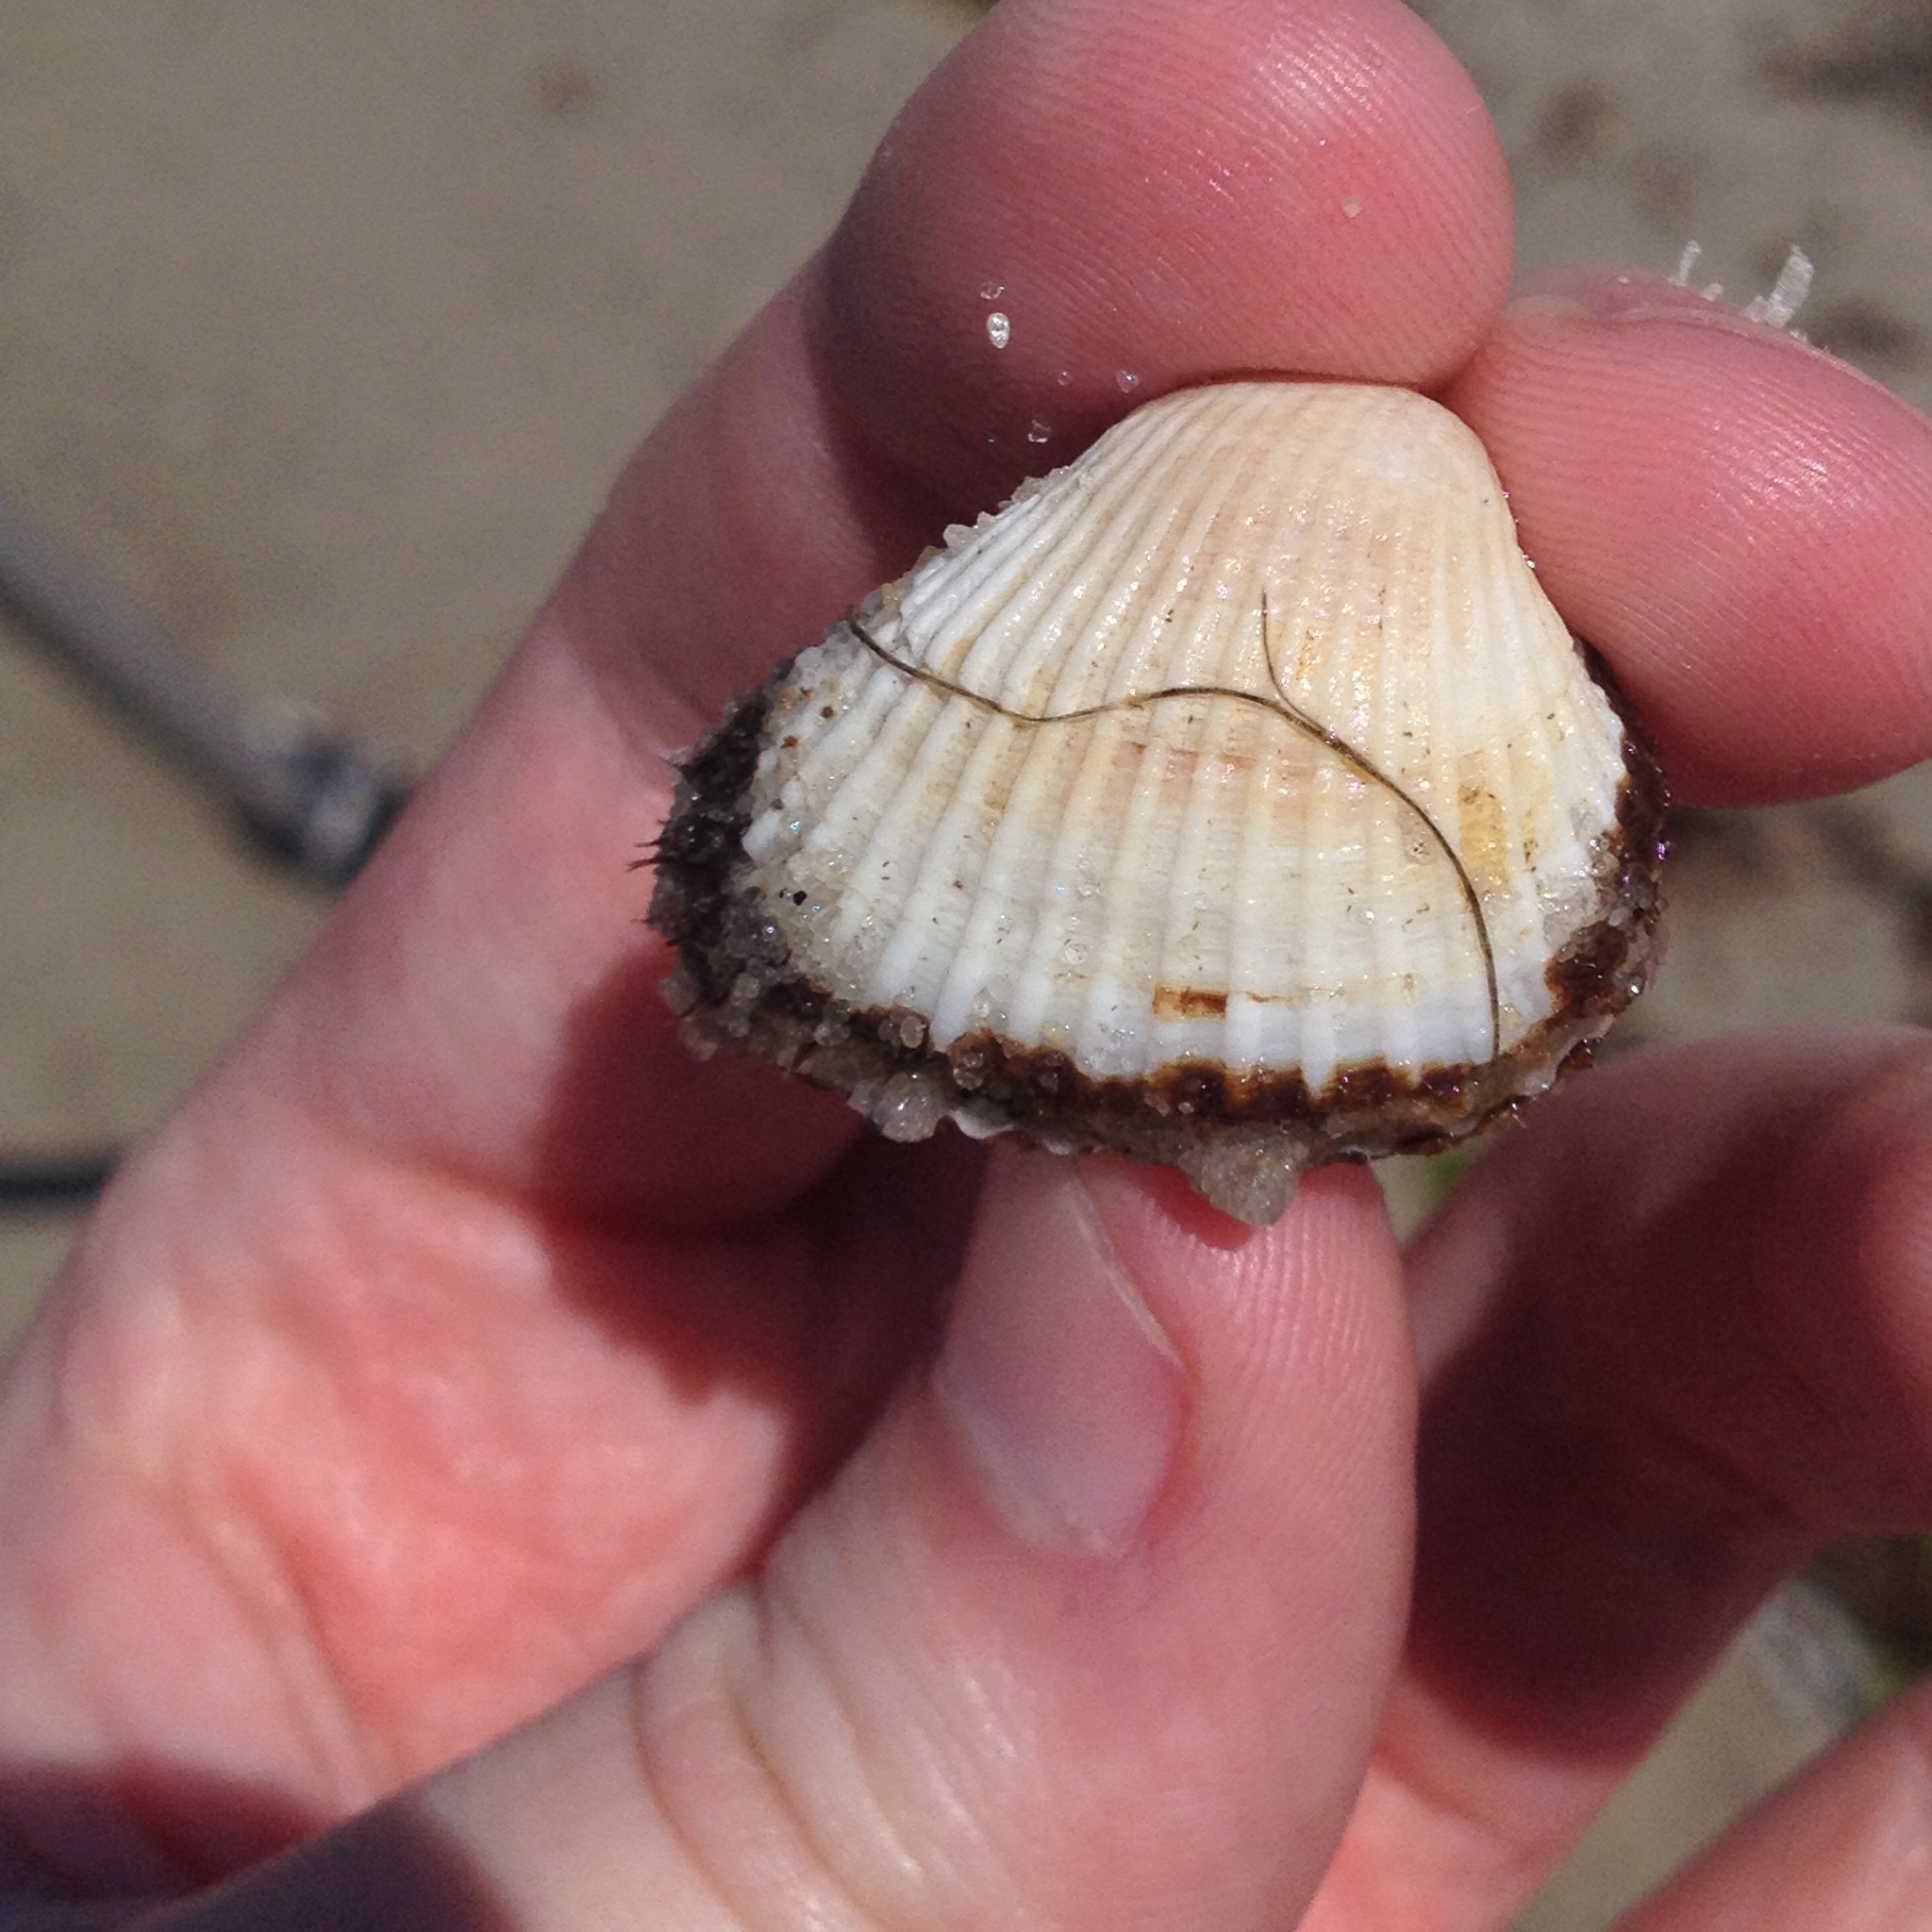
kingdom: Animalia
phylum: Mollusca
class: Bivalvia
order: Arcida
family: Arcidae
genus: Anadara
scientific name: Anadara transversa
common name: Transverse ark
